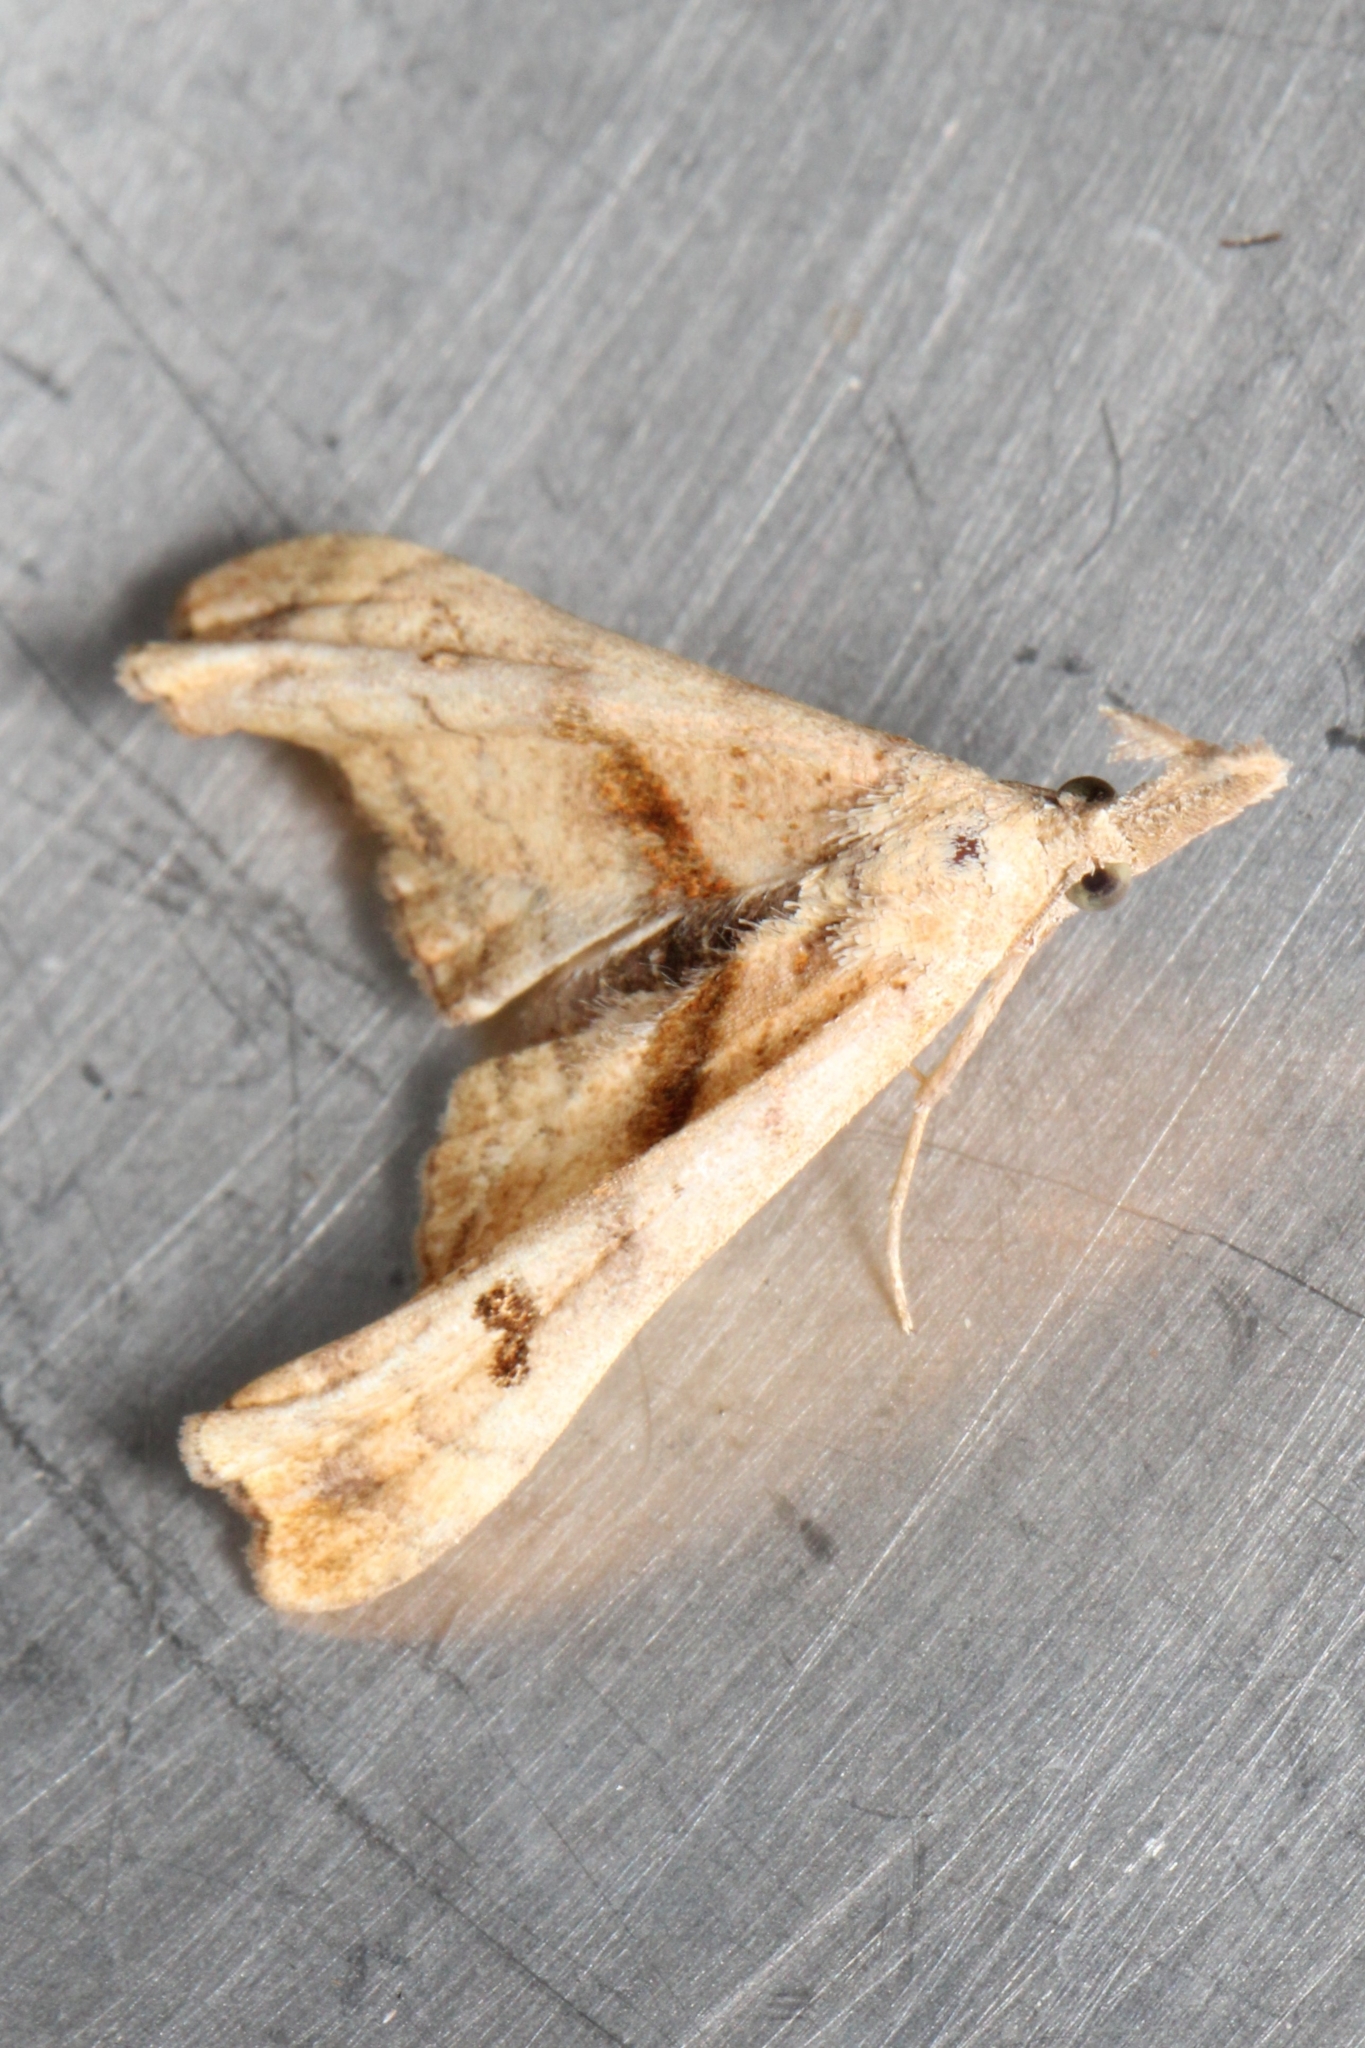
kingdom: Animalia
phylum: Arthropoda
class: Insecta
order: Lepidoptera
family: Erebidae
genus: Palthis
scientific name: Palthis angulalis
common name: Dark-spotted palthis moth
